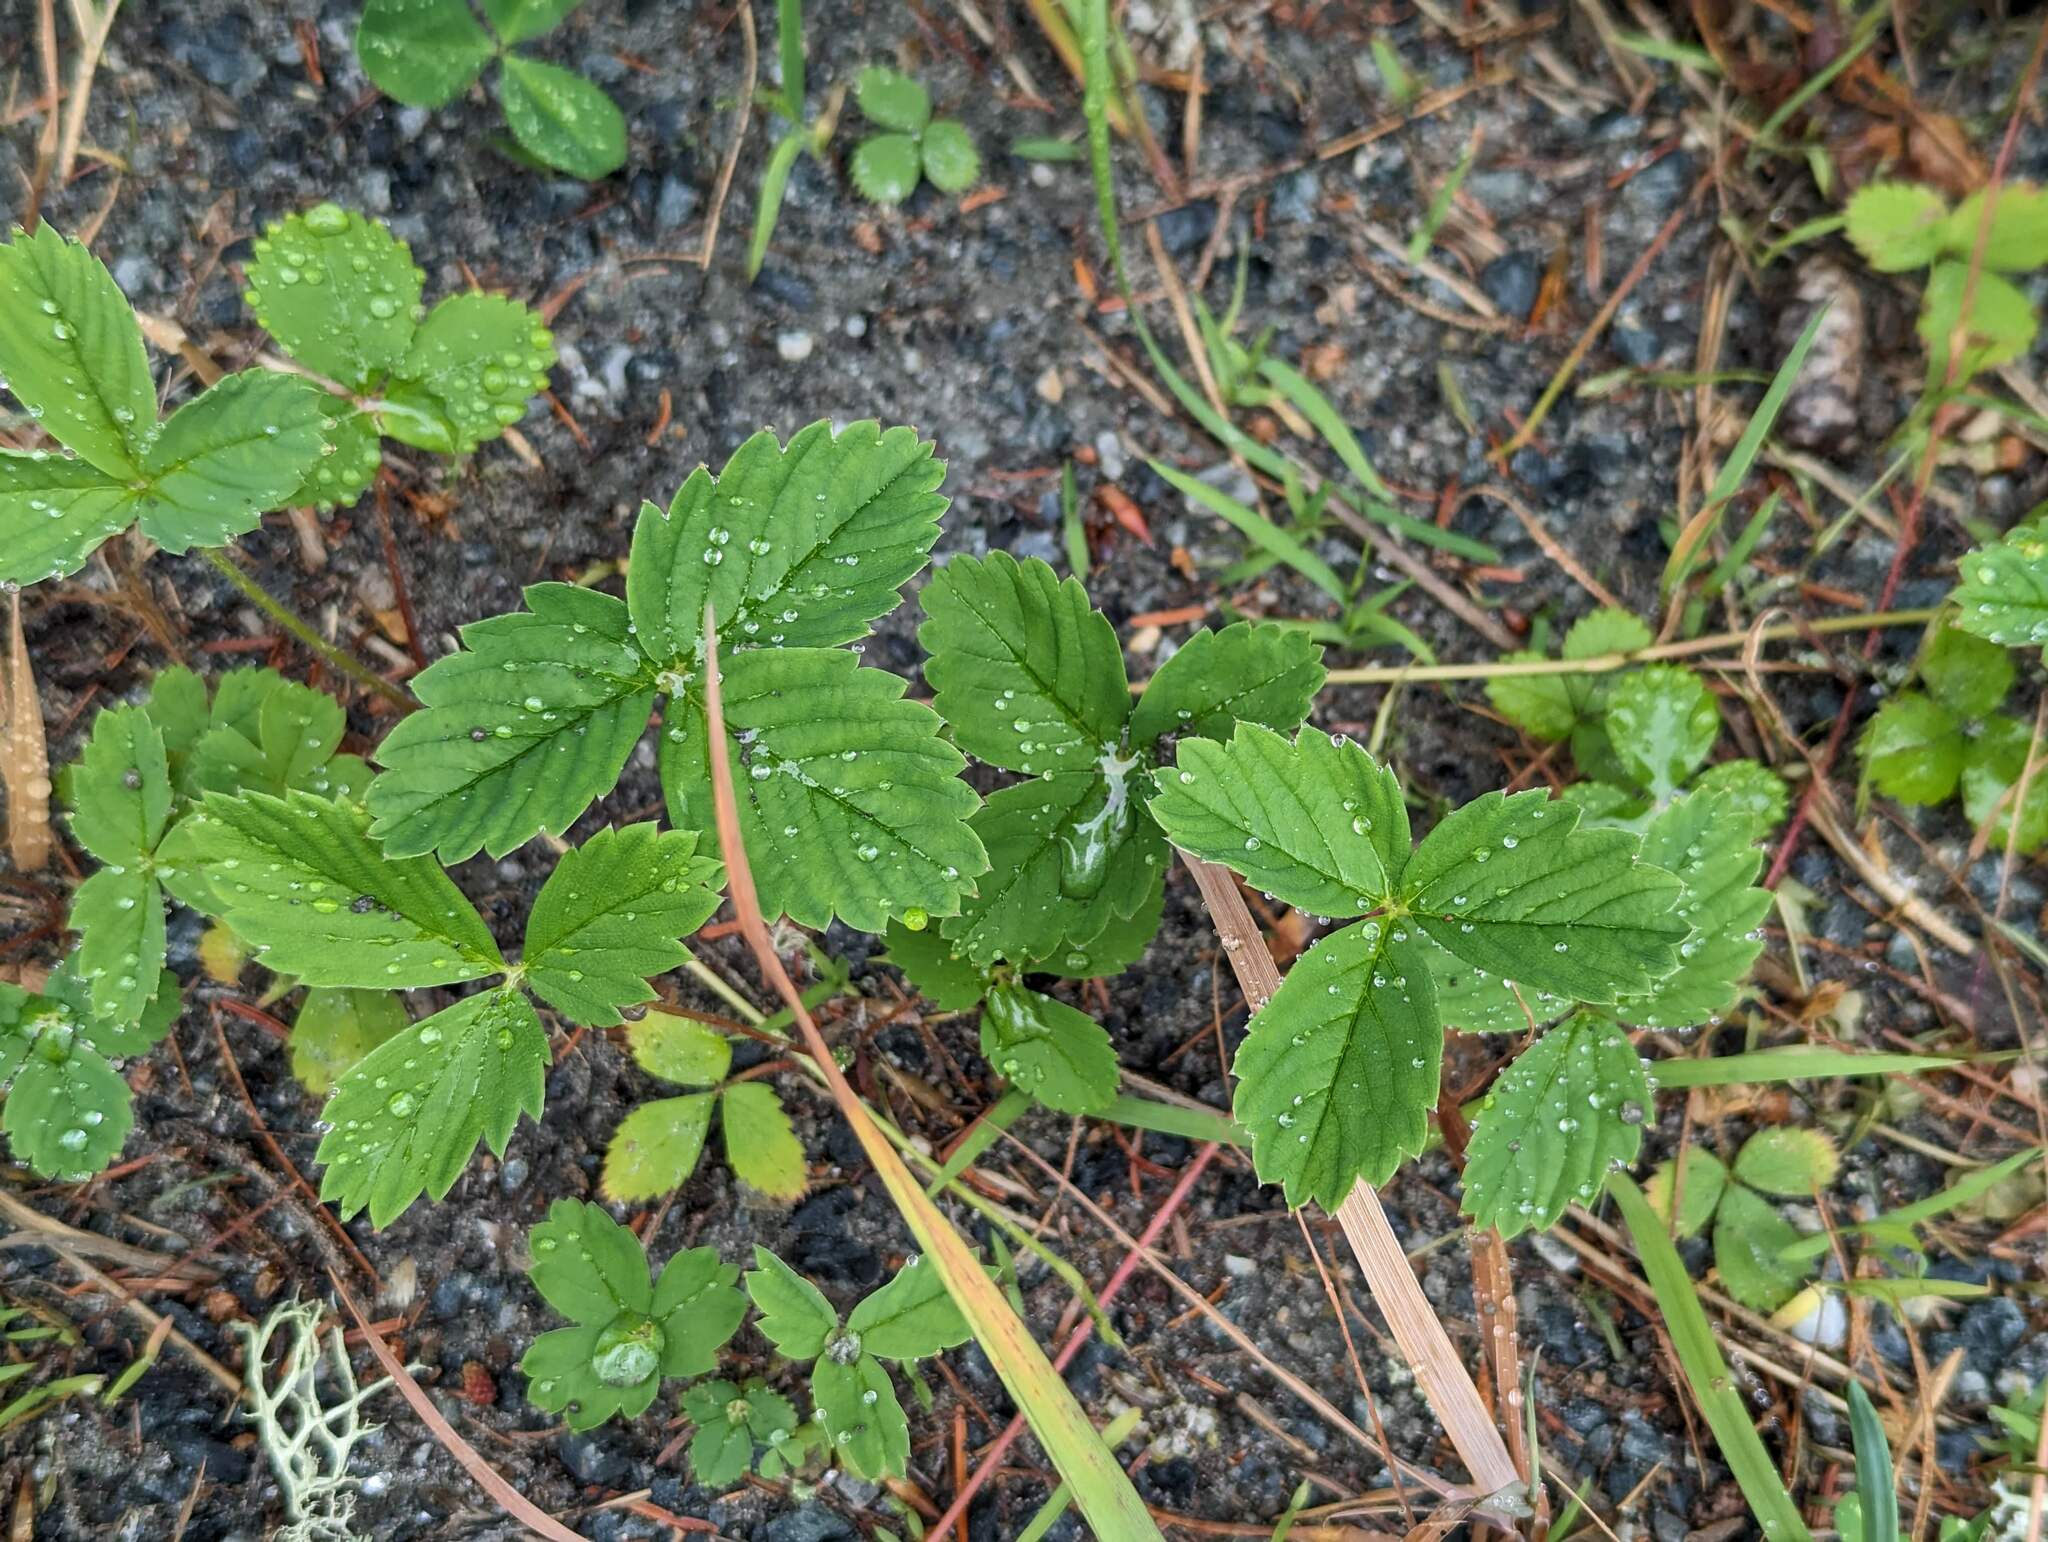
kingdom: Plantae
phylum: Tracheophyta
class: Magnoliopsida
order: Rosales
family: Rosaceae
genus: Fragaria
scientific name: Fragaria virginiana
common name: Thickleaved wild strawberry
